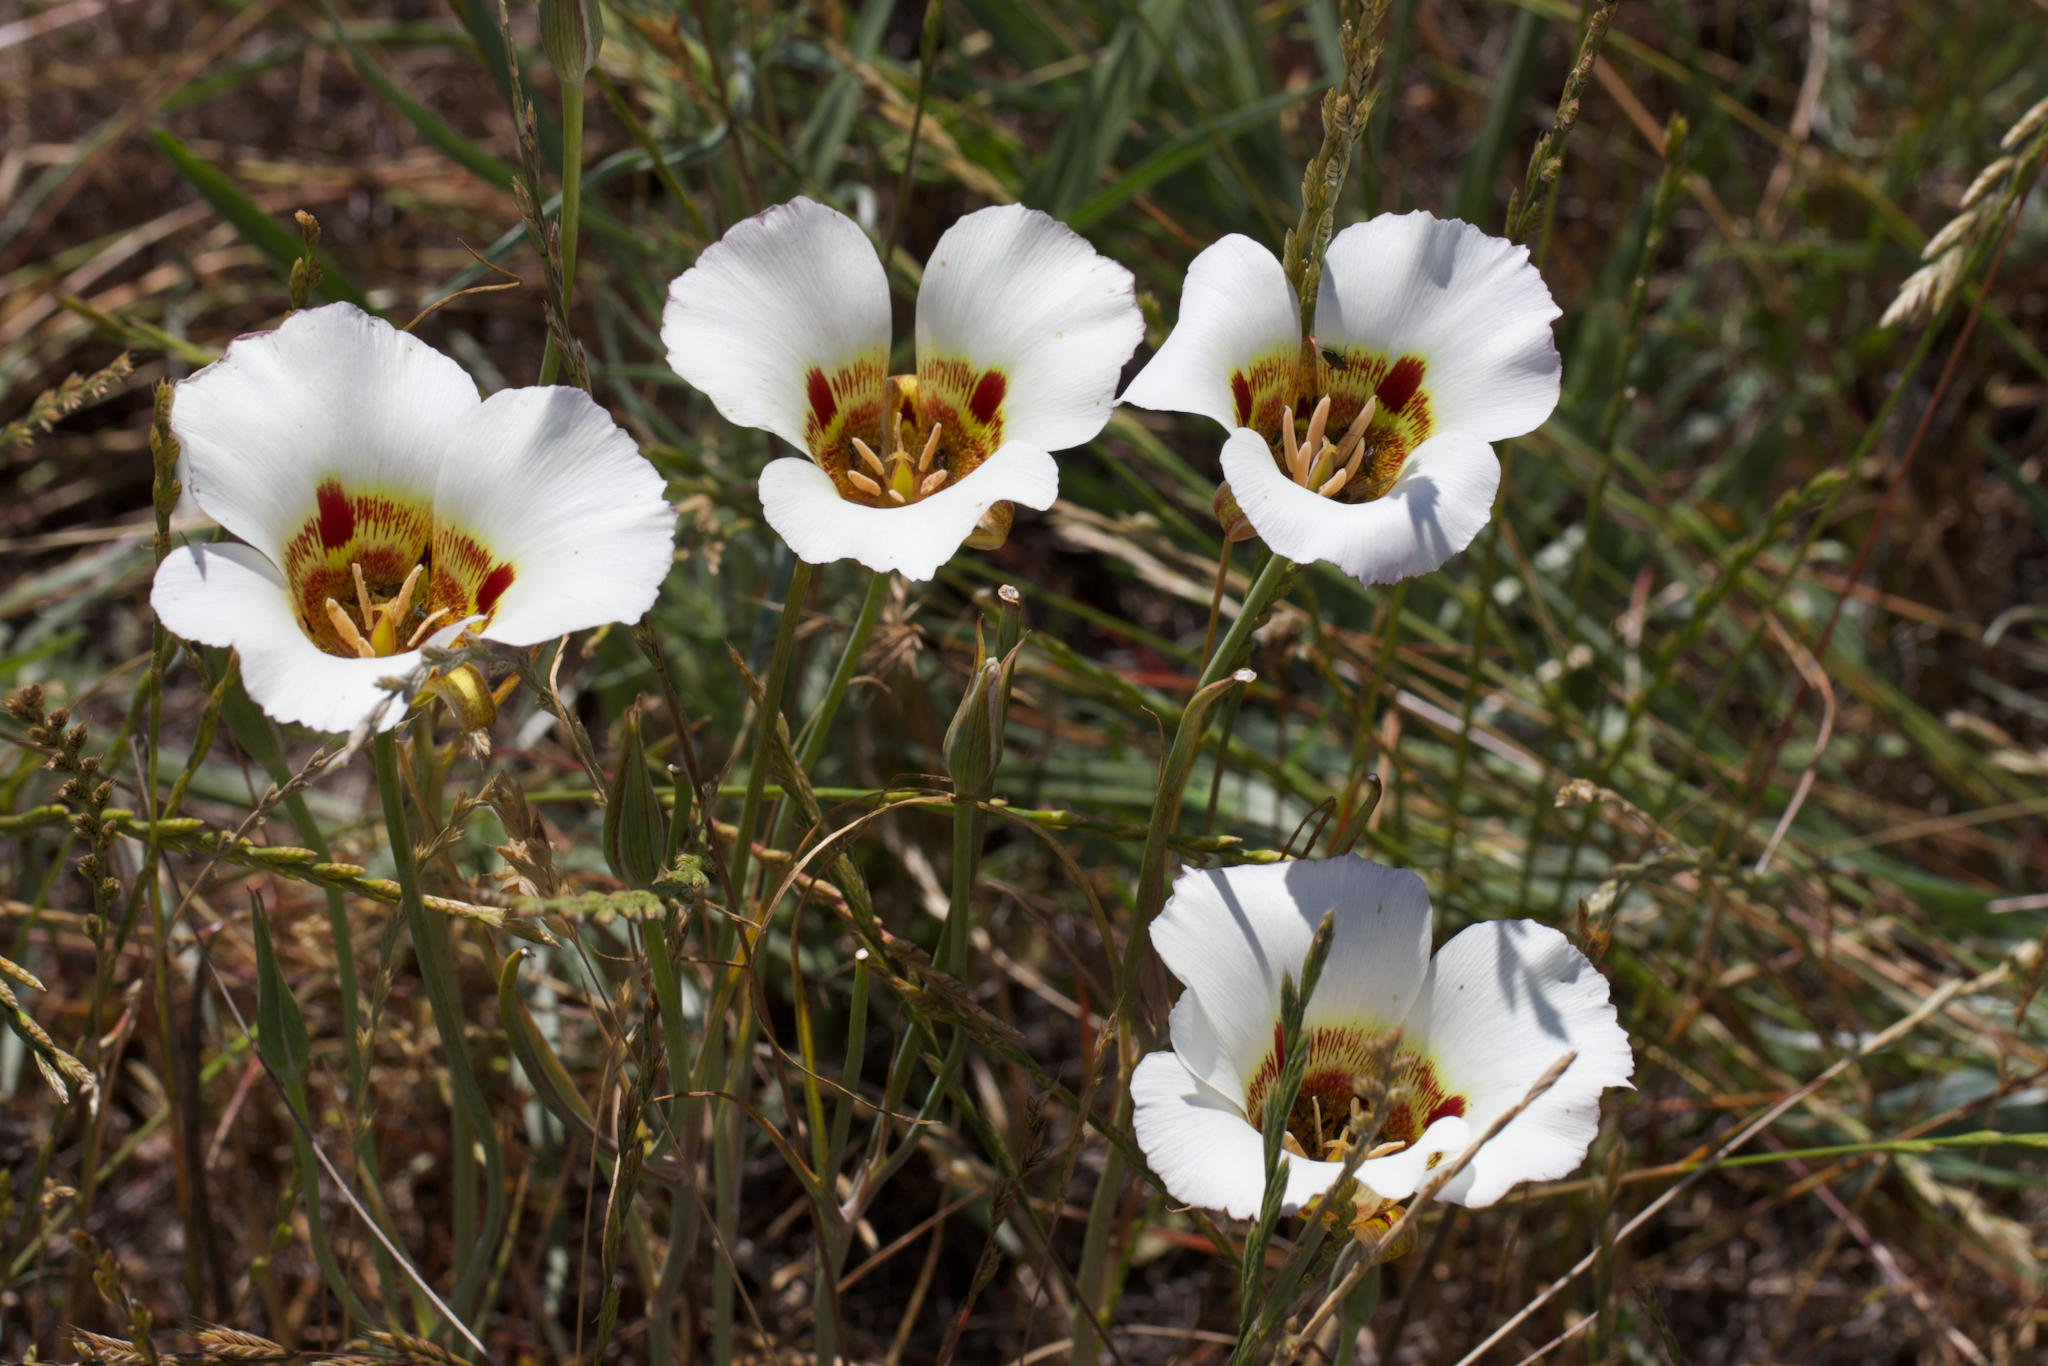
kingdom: Plantae
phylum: Tracheophyta
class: Liliopsida
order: Liliales
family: Liliaceae
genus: Calochortus
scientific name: Calochortus vestae
